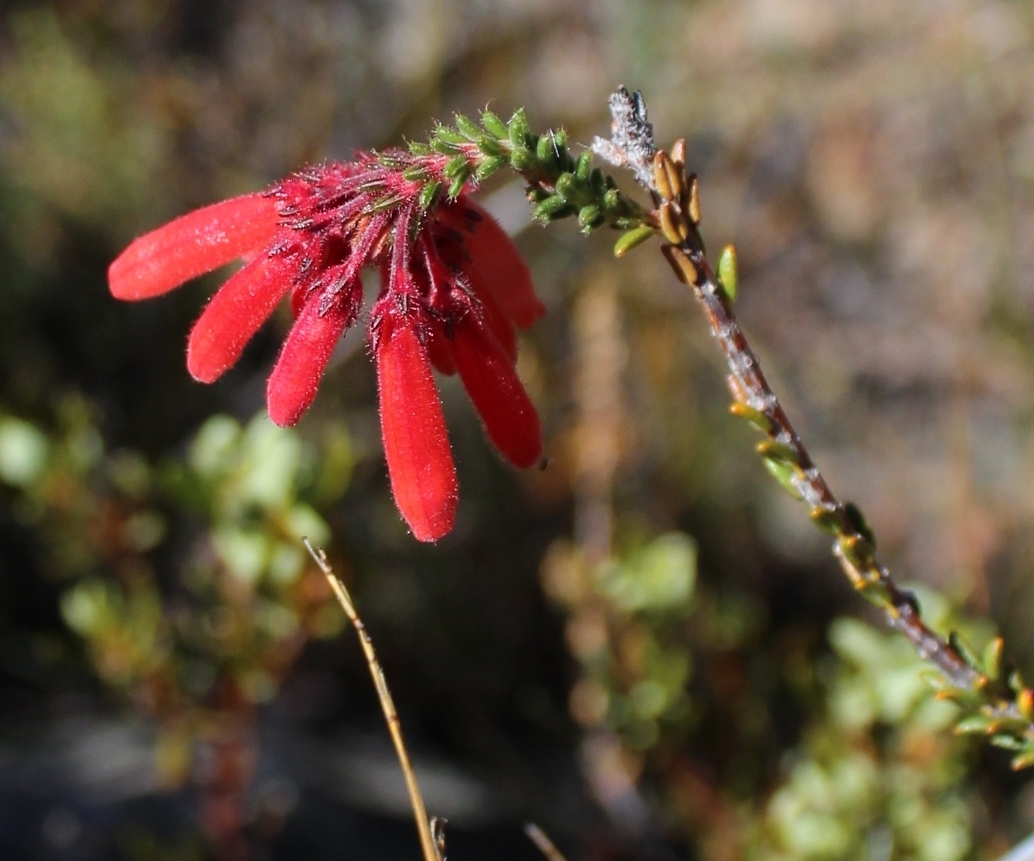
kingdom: Plantae
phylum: Tracheophyta
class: Magnoliopsida
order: Ericales
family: Ericaceae
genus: Erica
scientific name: Erica cerinthoides
